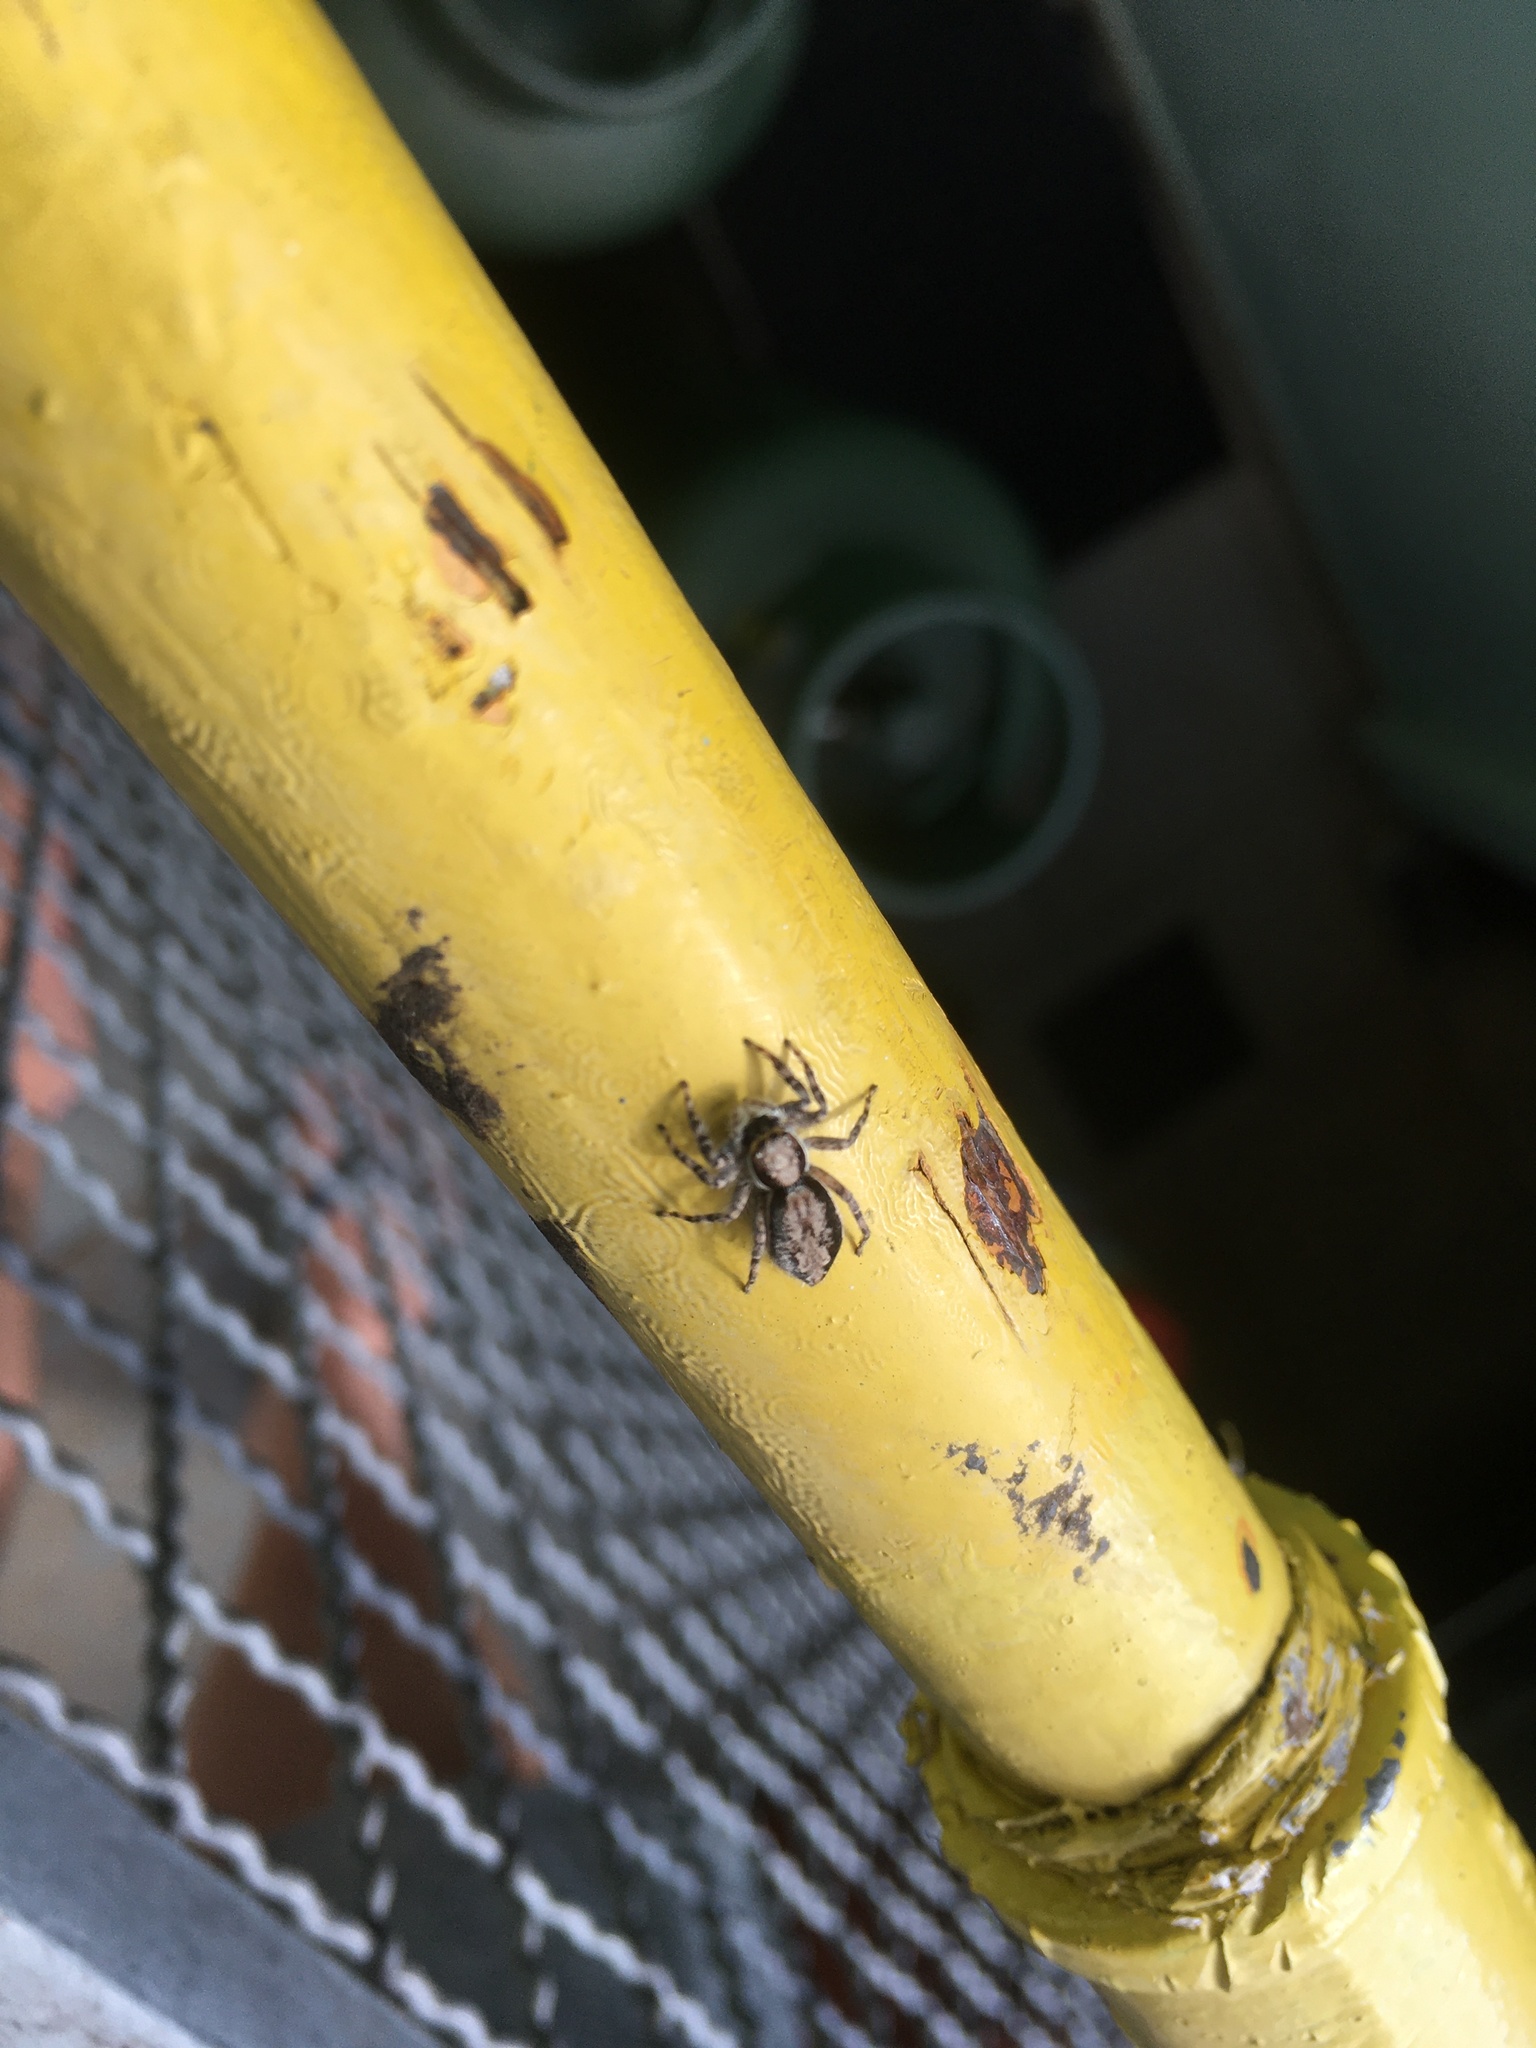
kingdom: Animalia
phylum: Arthropoda
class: Arachnida
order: Araneae
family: Salticidae
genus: Menemerus
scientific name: Menemerus bivittatus
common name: Gray wall jumper
